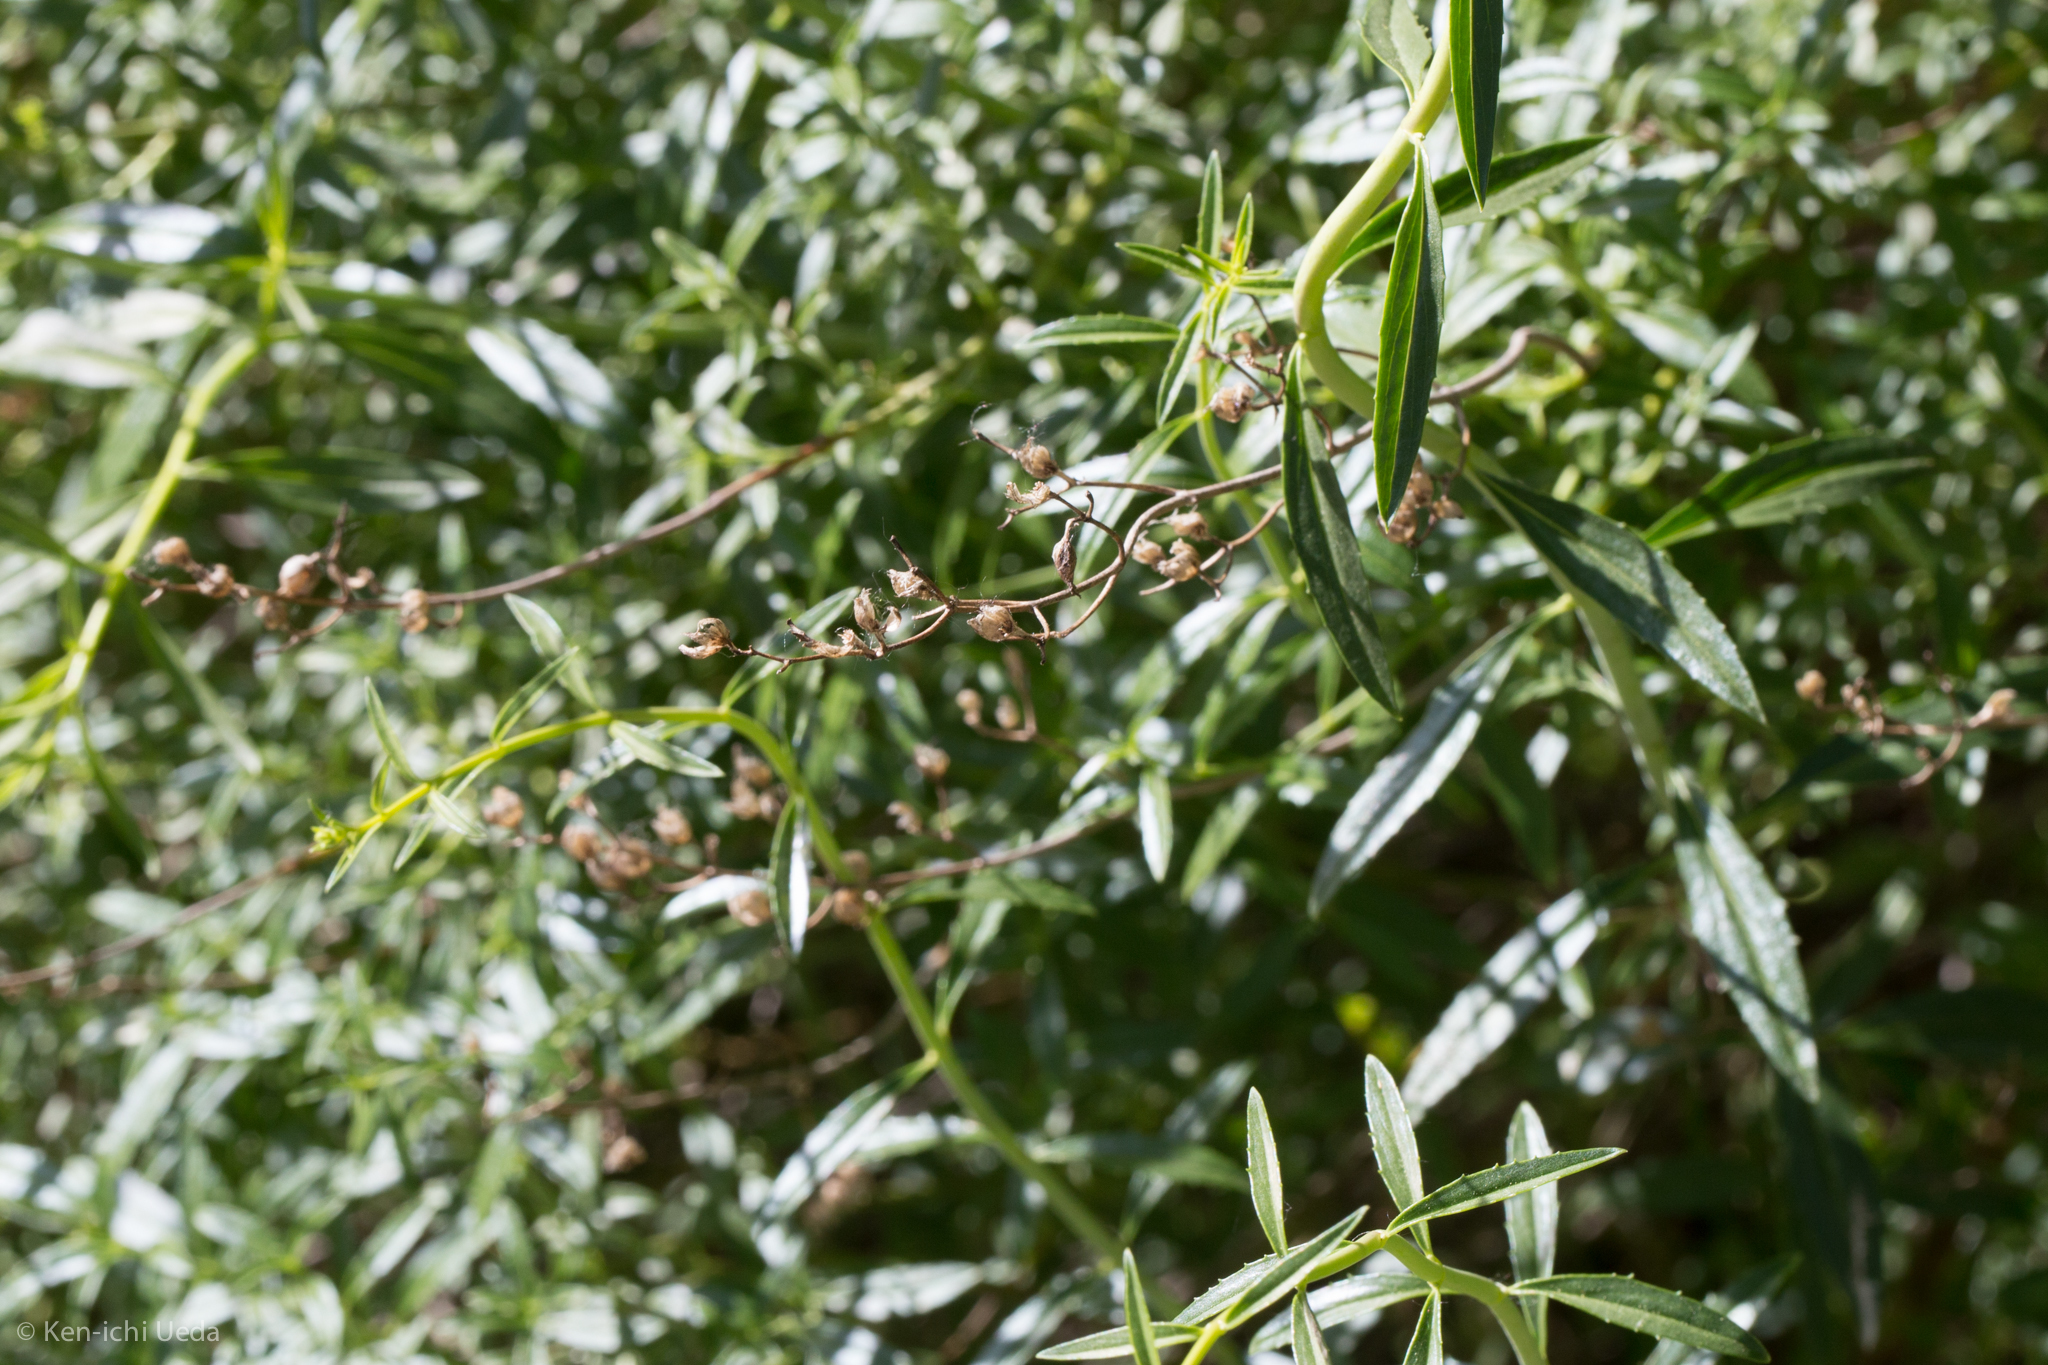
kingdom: Plantae
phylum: Tracheophyta
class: Magnoliopsida
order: Lamiales
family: Plantaginaceae
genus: Keckiella
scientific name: Keckiella breviflora
